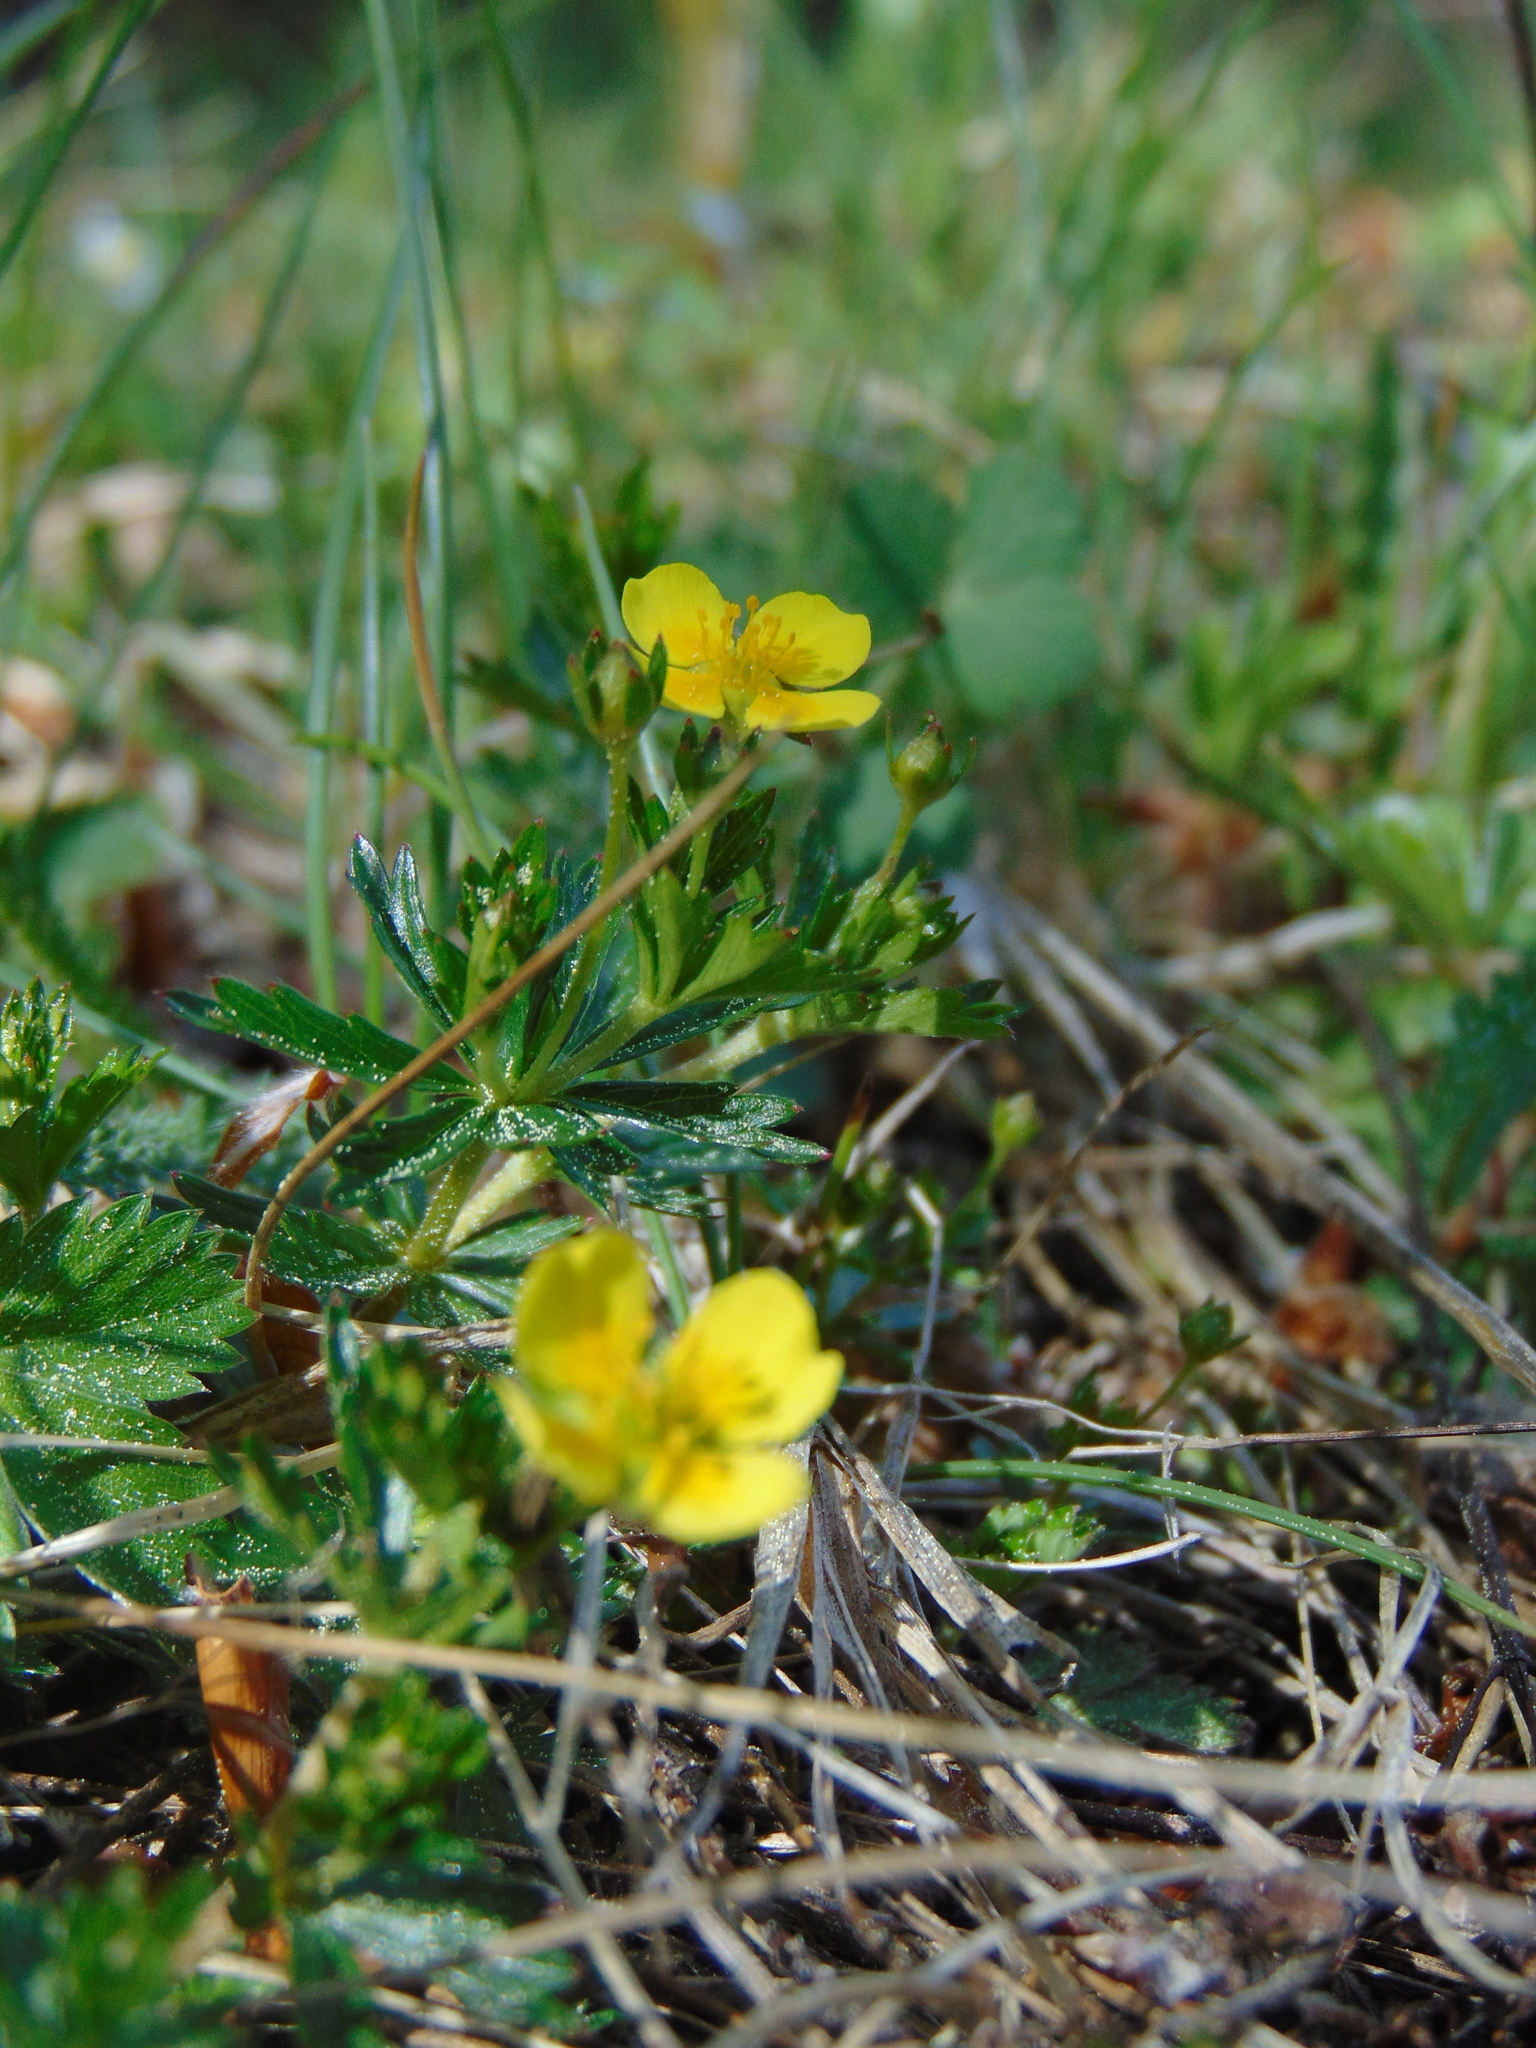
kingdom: Plantae
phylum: Tracheophyta
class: Magnoliopsida
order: Rosales
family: Rosaceae
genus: Potentilla
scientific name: Potentilla erecta
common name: Tormentil
